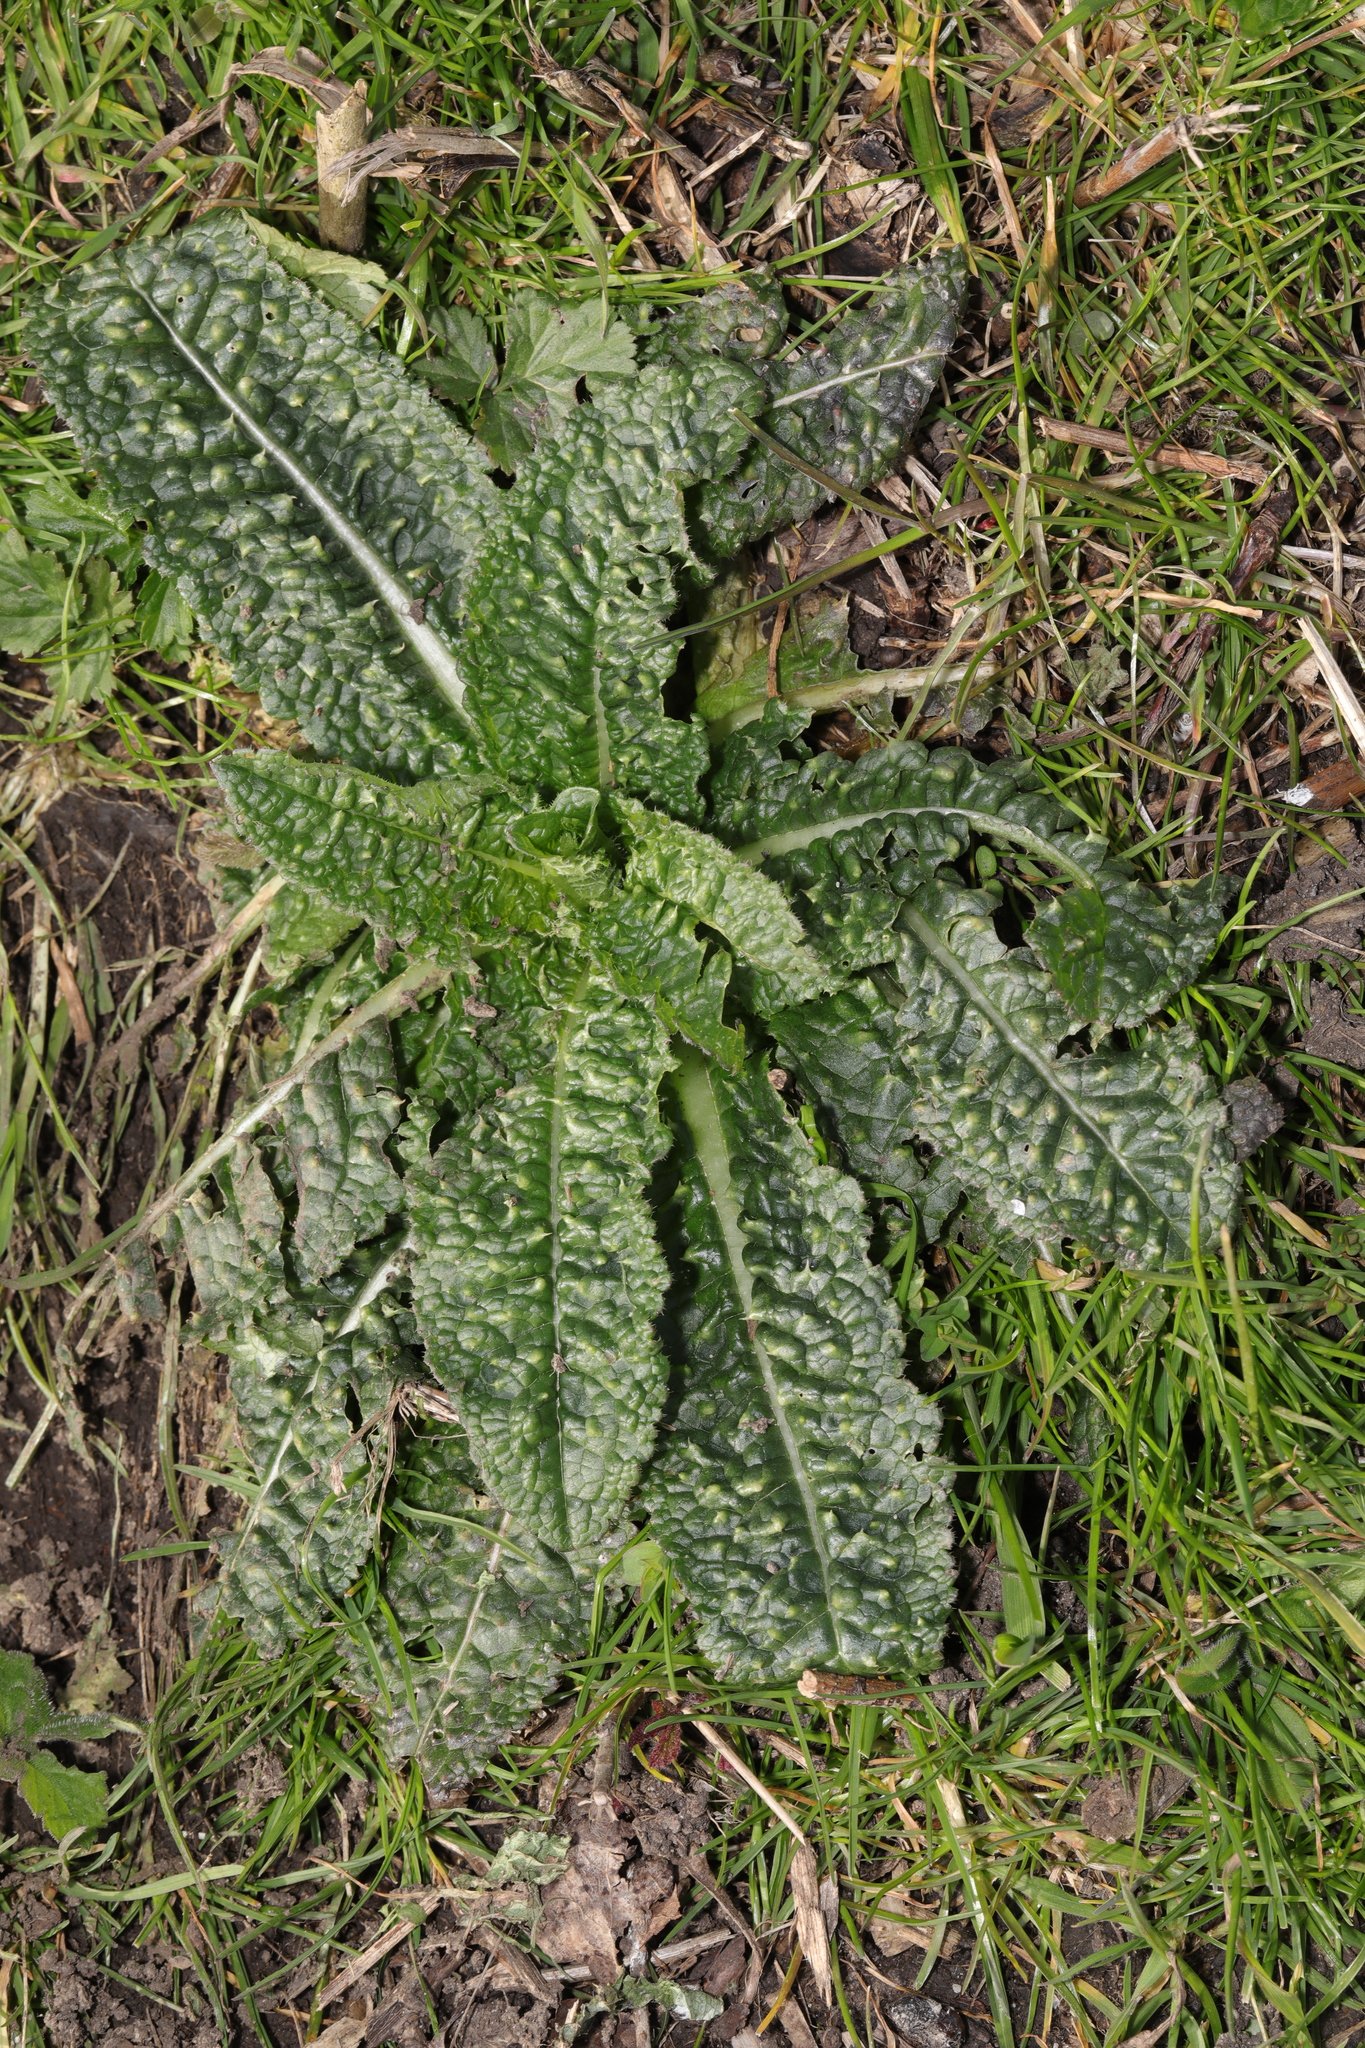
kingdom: Plantae
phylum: Tracheophyta
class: Magnoliopsida
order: Dipsacales
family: Caprifoliaceae
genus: Dipsacus
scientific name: Dipsacus fullonum
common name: Teasel
